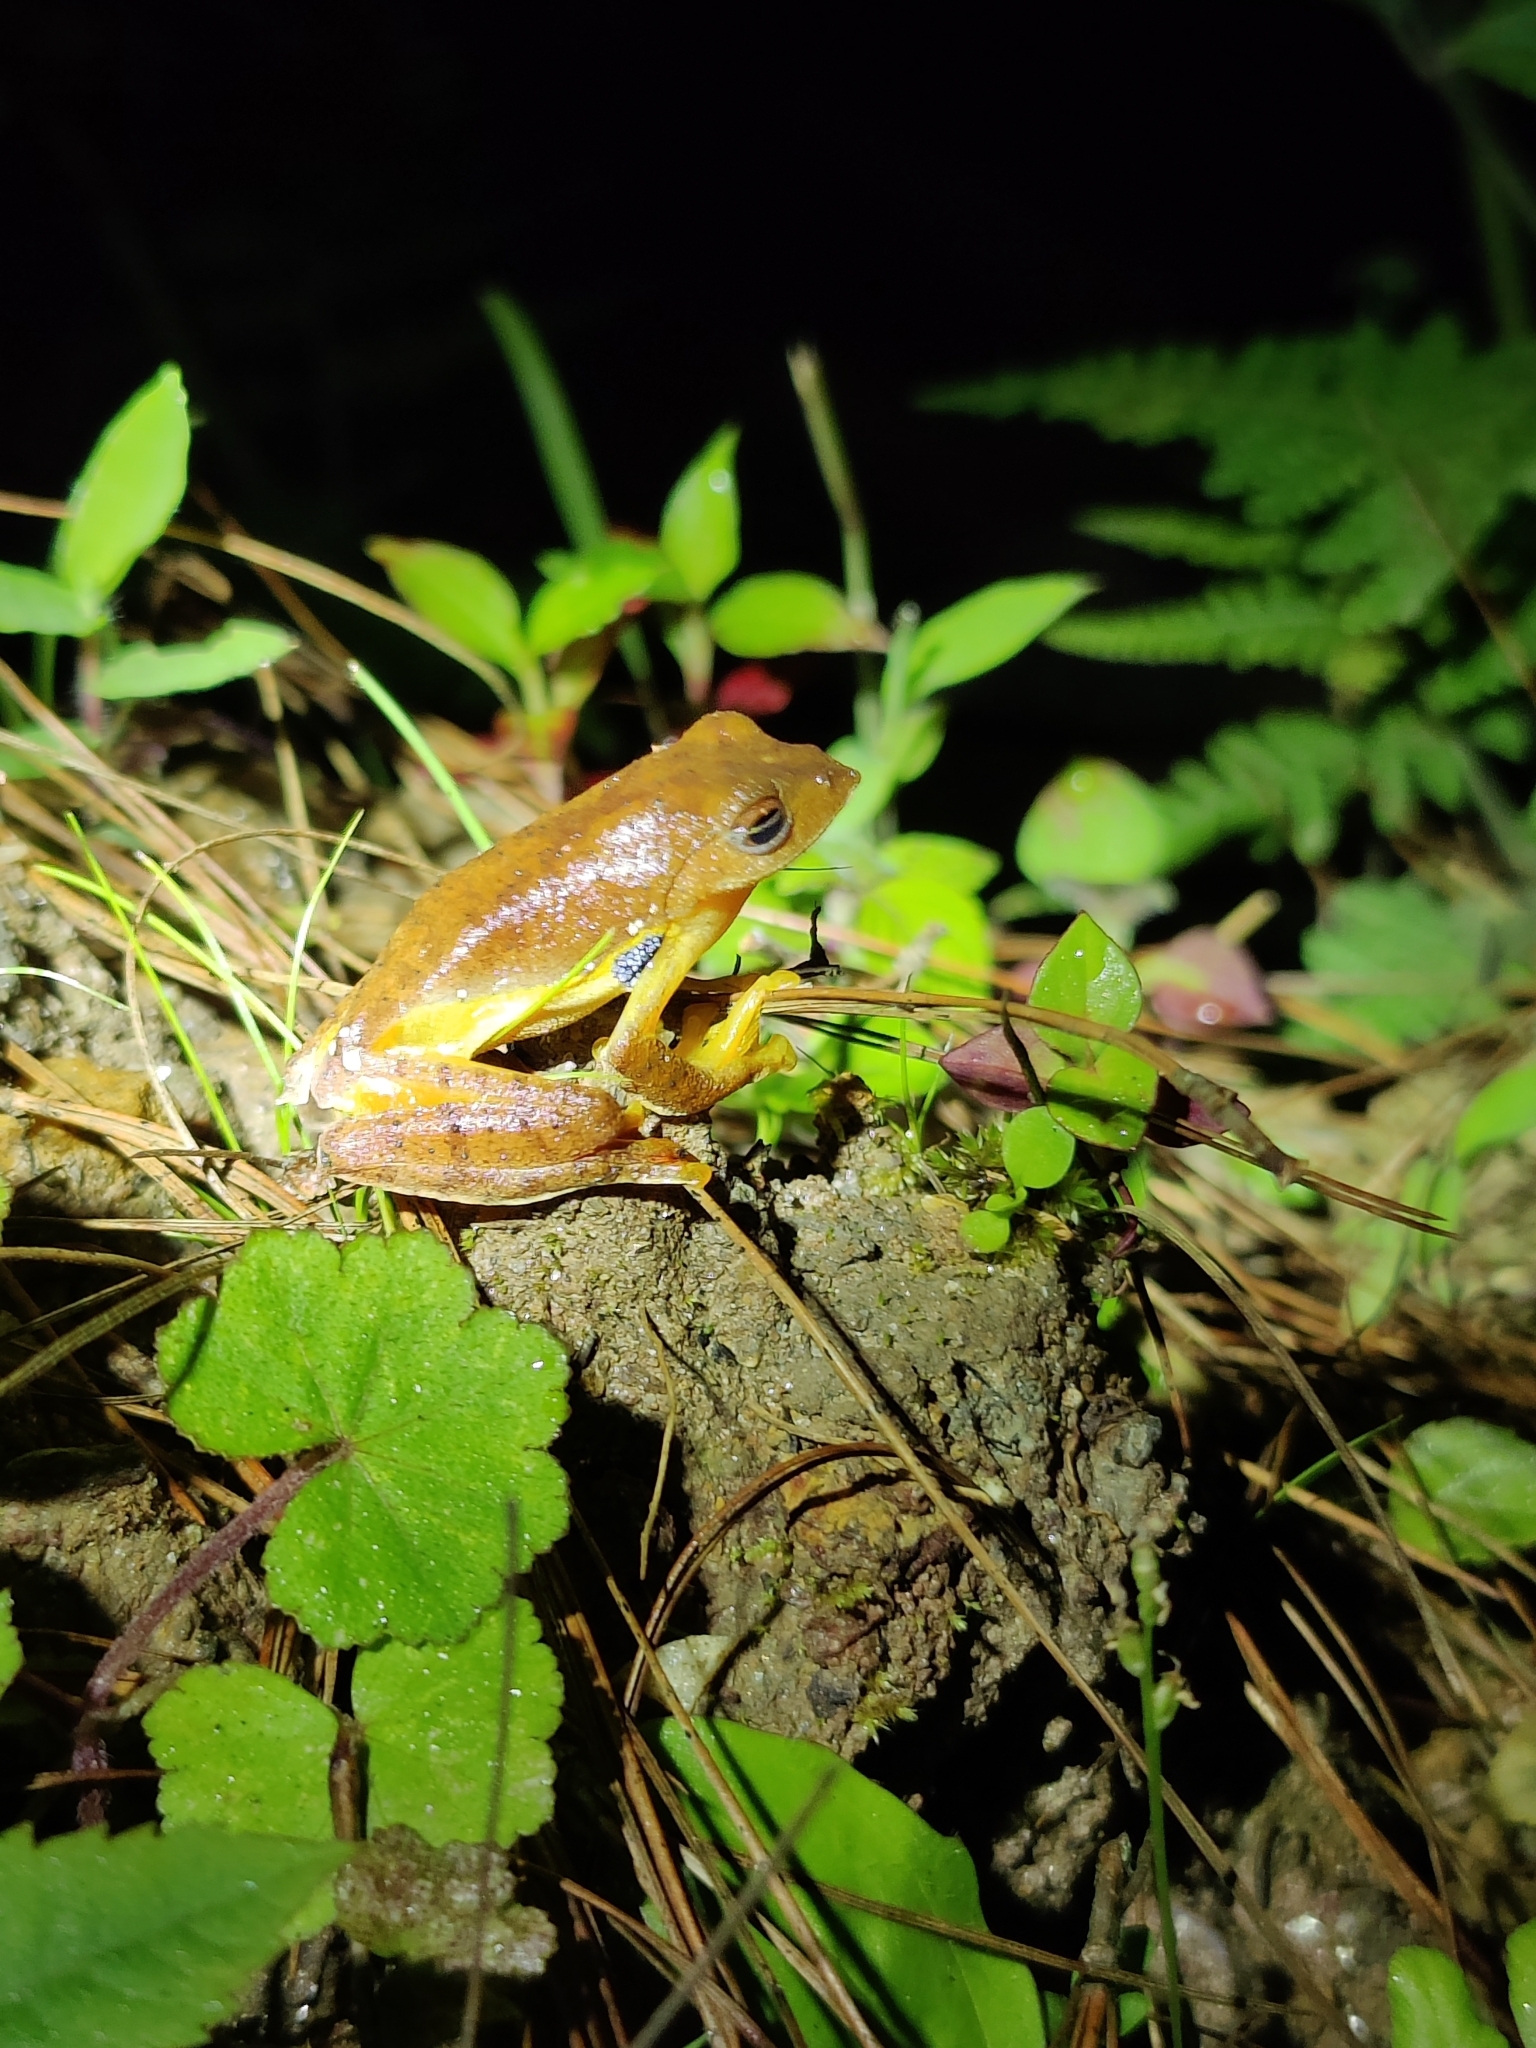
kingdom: Animalia
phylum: Chordata
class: Amphibia
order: Anura
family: Rhacophoridae
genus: Rhacophorus
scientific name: Rhacophorus subansiriensis
